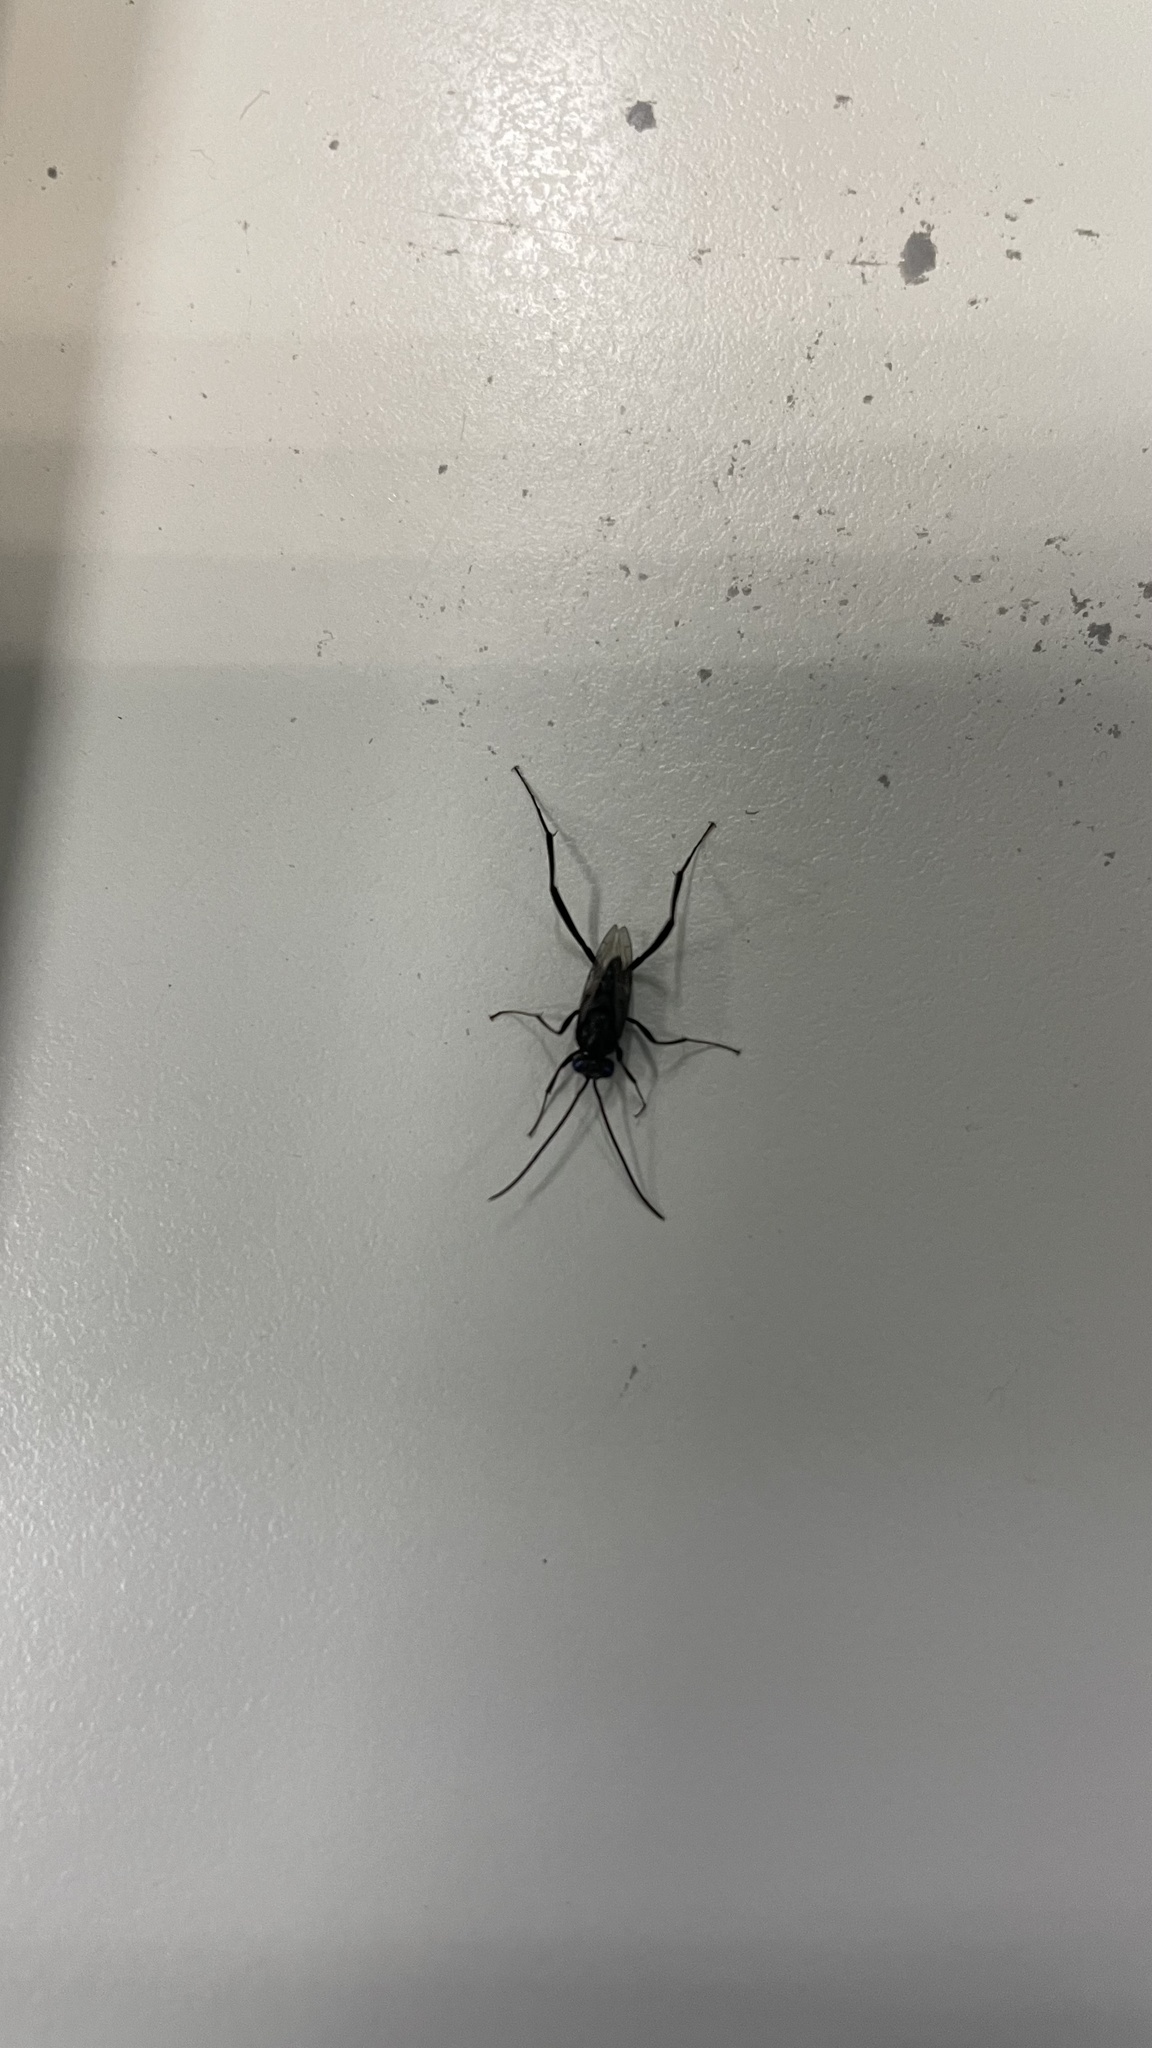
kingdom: Animalia
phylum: Arthropoda
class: Insecta
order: Hymenoptera
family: Evaniidae
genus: Evania
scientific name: Evania appendigaster
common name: Ensign wasp
